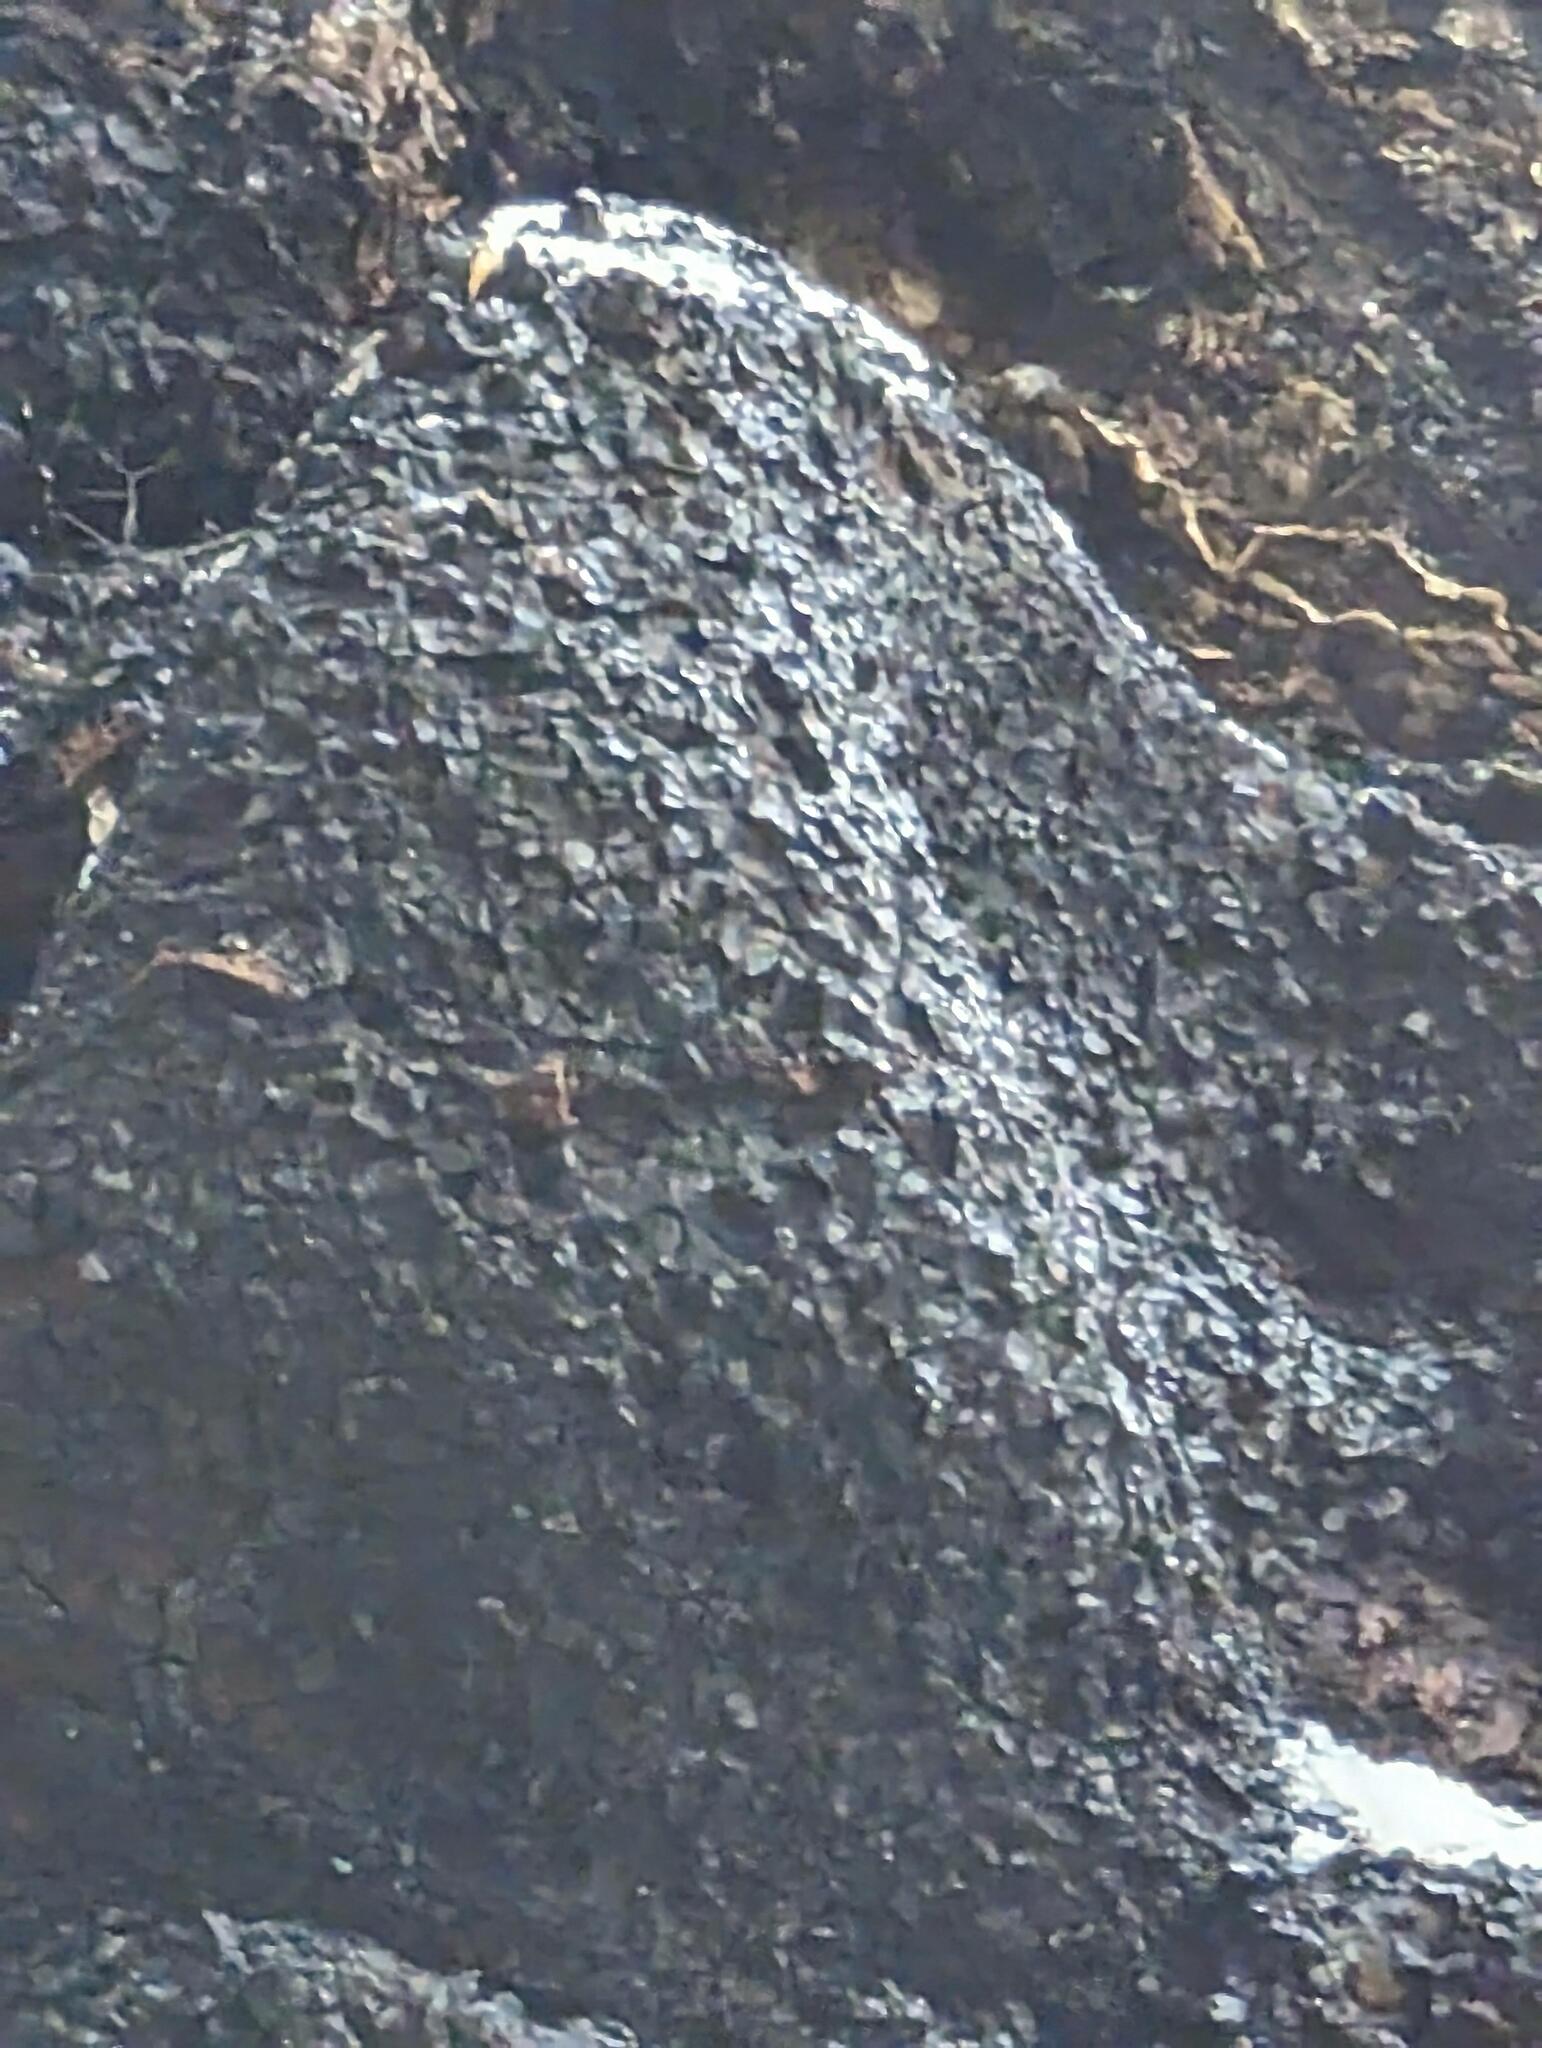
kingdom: Fungi
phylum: Basidiomycota
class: Agaricomycetes
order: Hymenochaetales
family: Hymenochaetaceae
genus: Inonotus
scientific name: Inonotus obliquus
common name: Chaga
